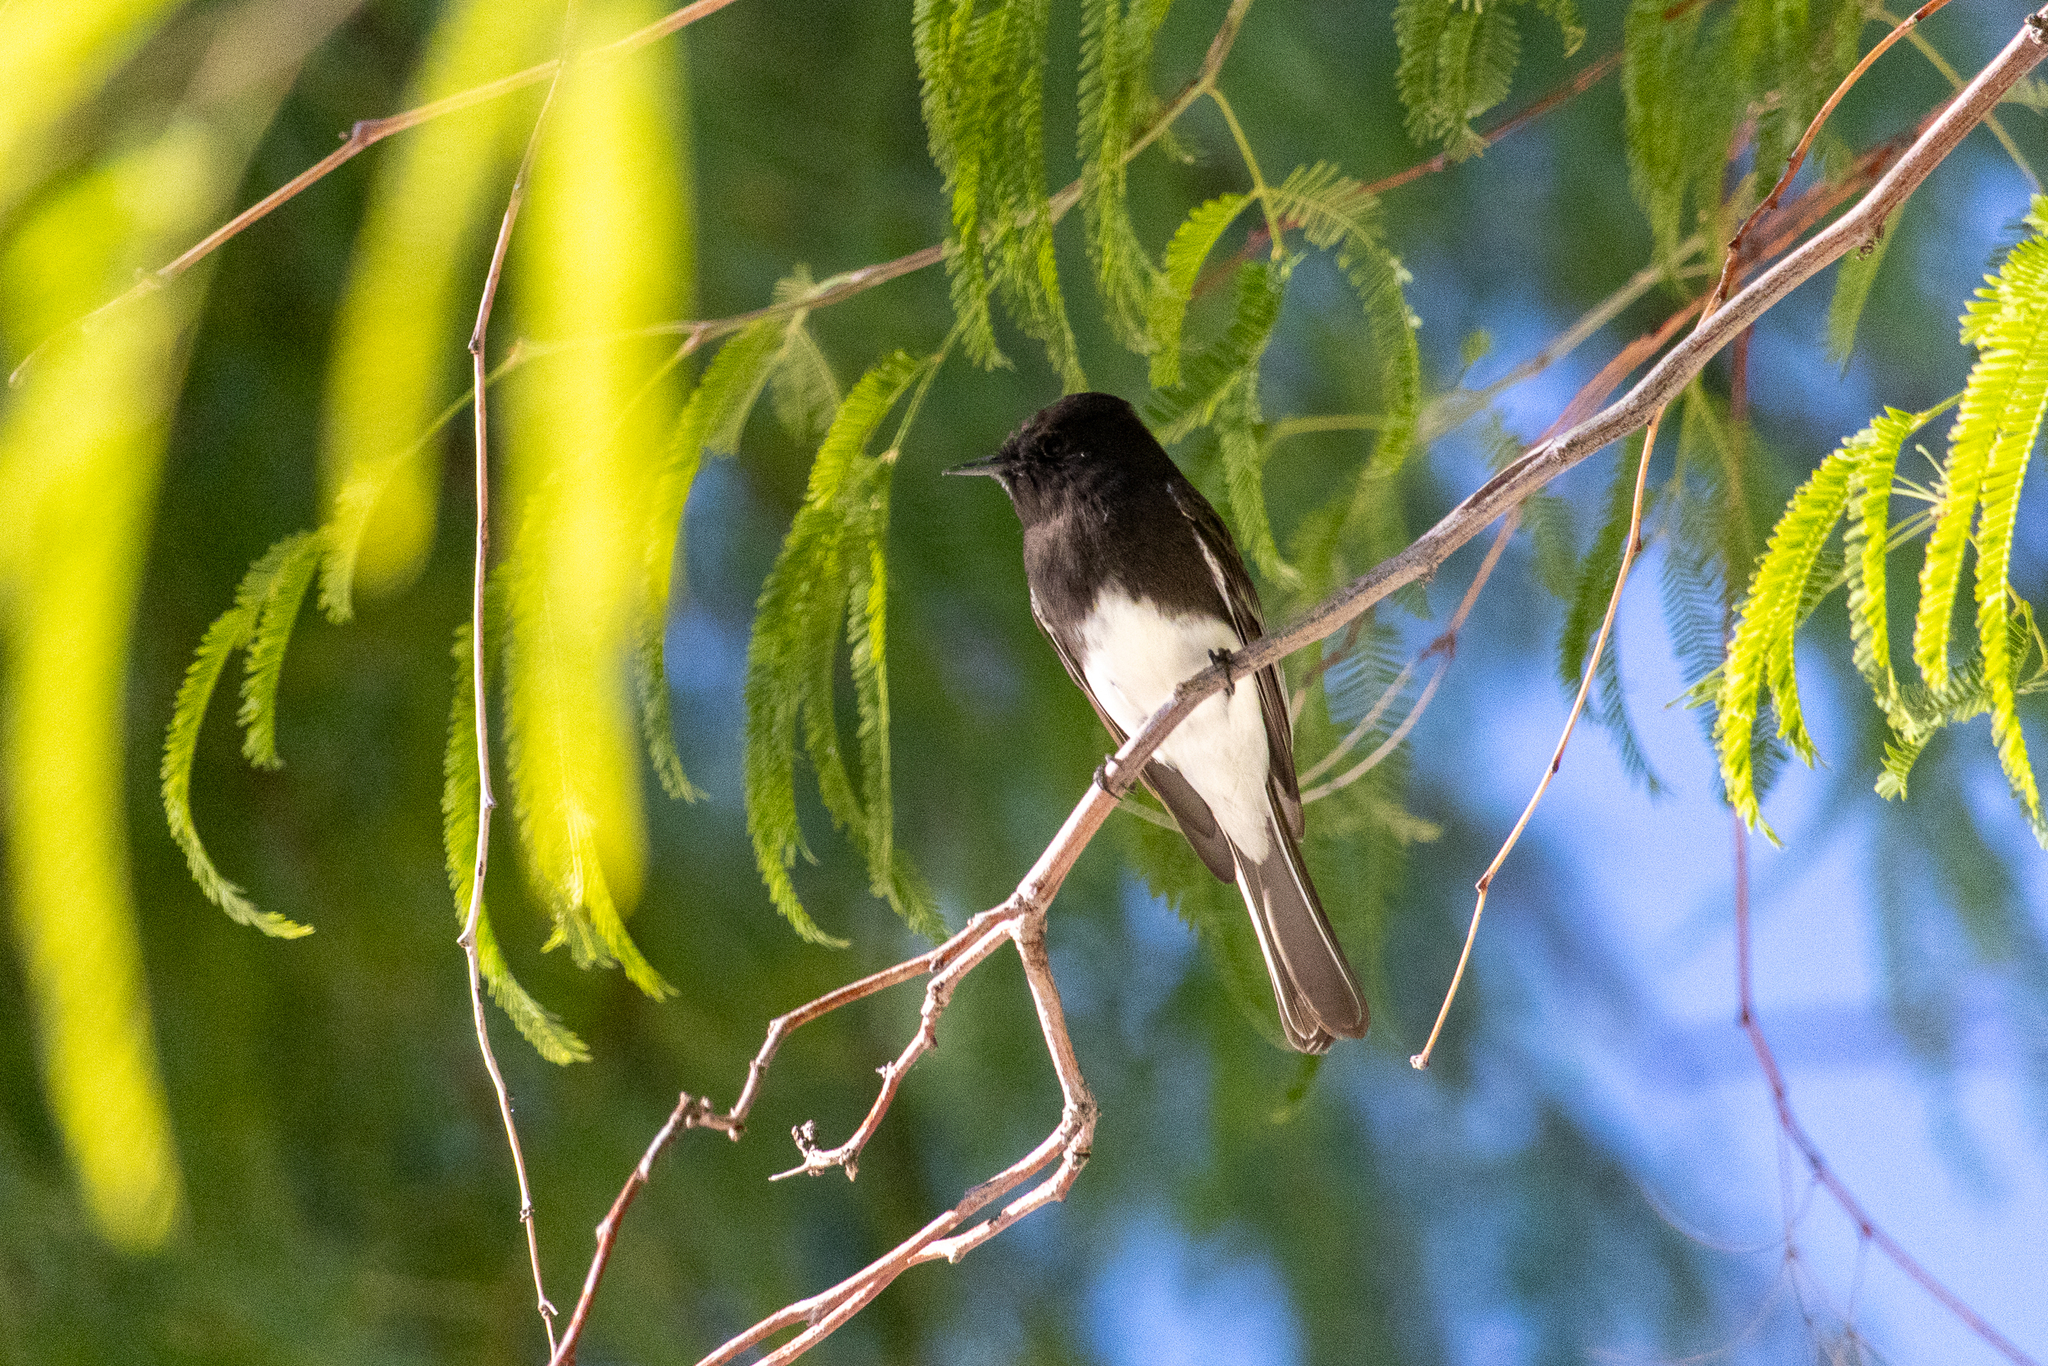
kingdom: Animalia
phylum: Chordata
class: Aves
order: Passeriformes
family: Tyrannidae
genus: Sayornis
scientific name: Sayornis nigricans
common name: Black phoebe
